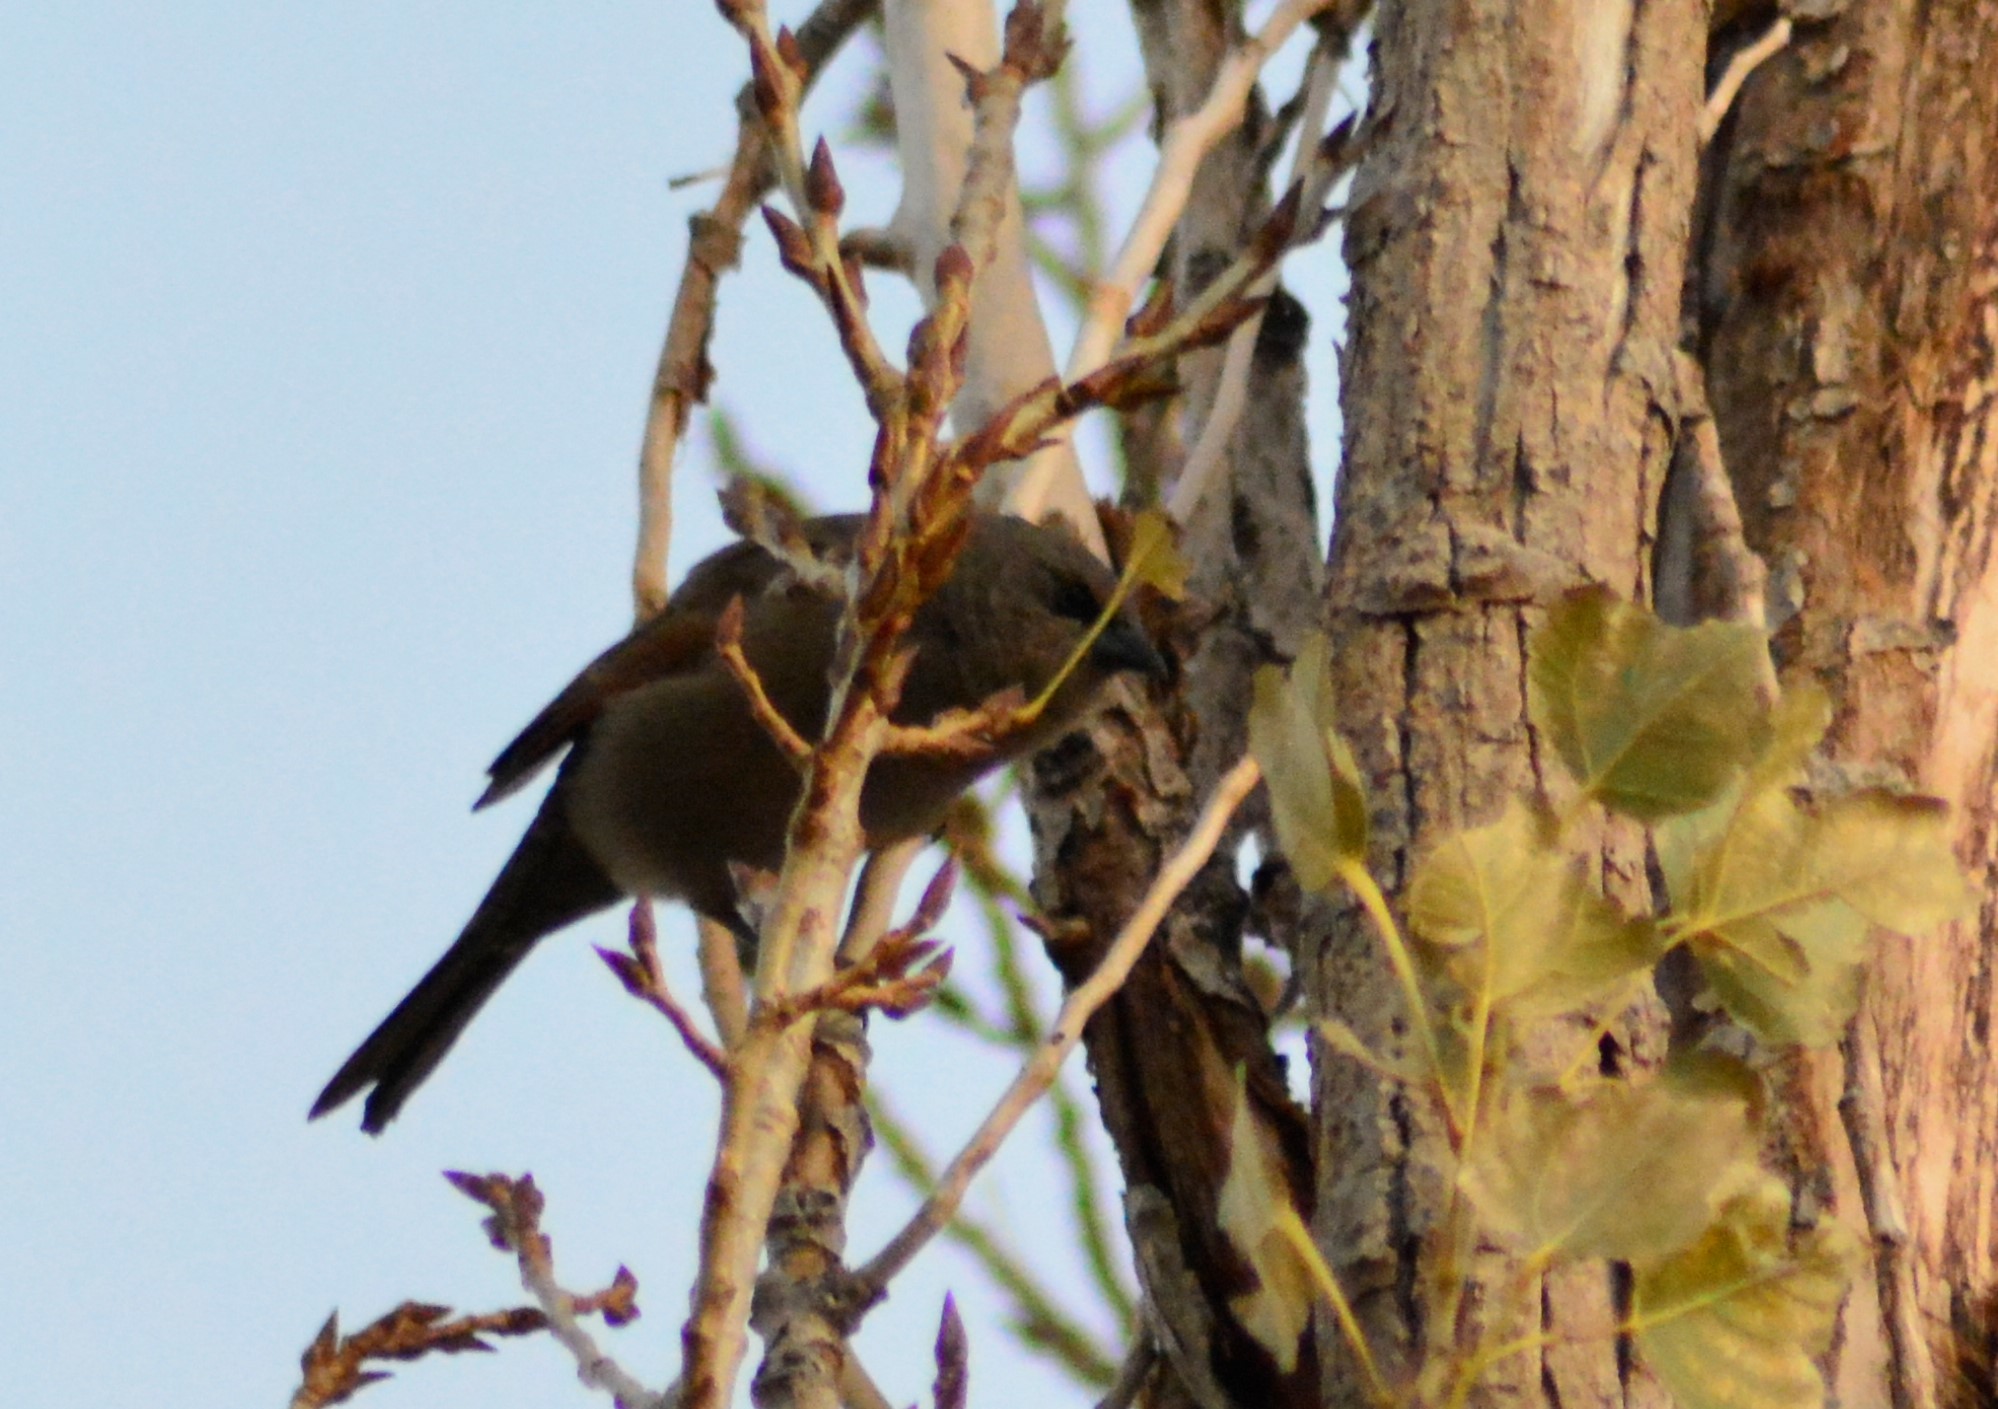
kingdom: Animalia
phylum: Chordata
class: Aves
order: Passeriformes
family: Icteridae
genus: Agelaioides
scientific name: Agelaioides badius
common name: Baywing
